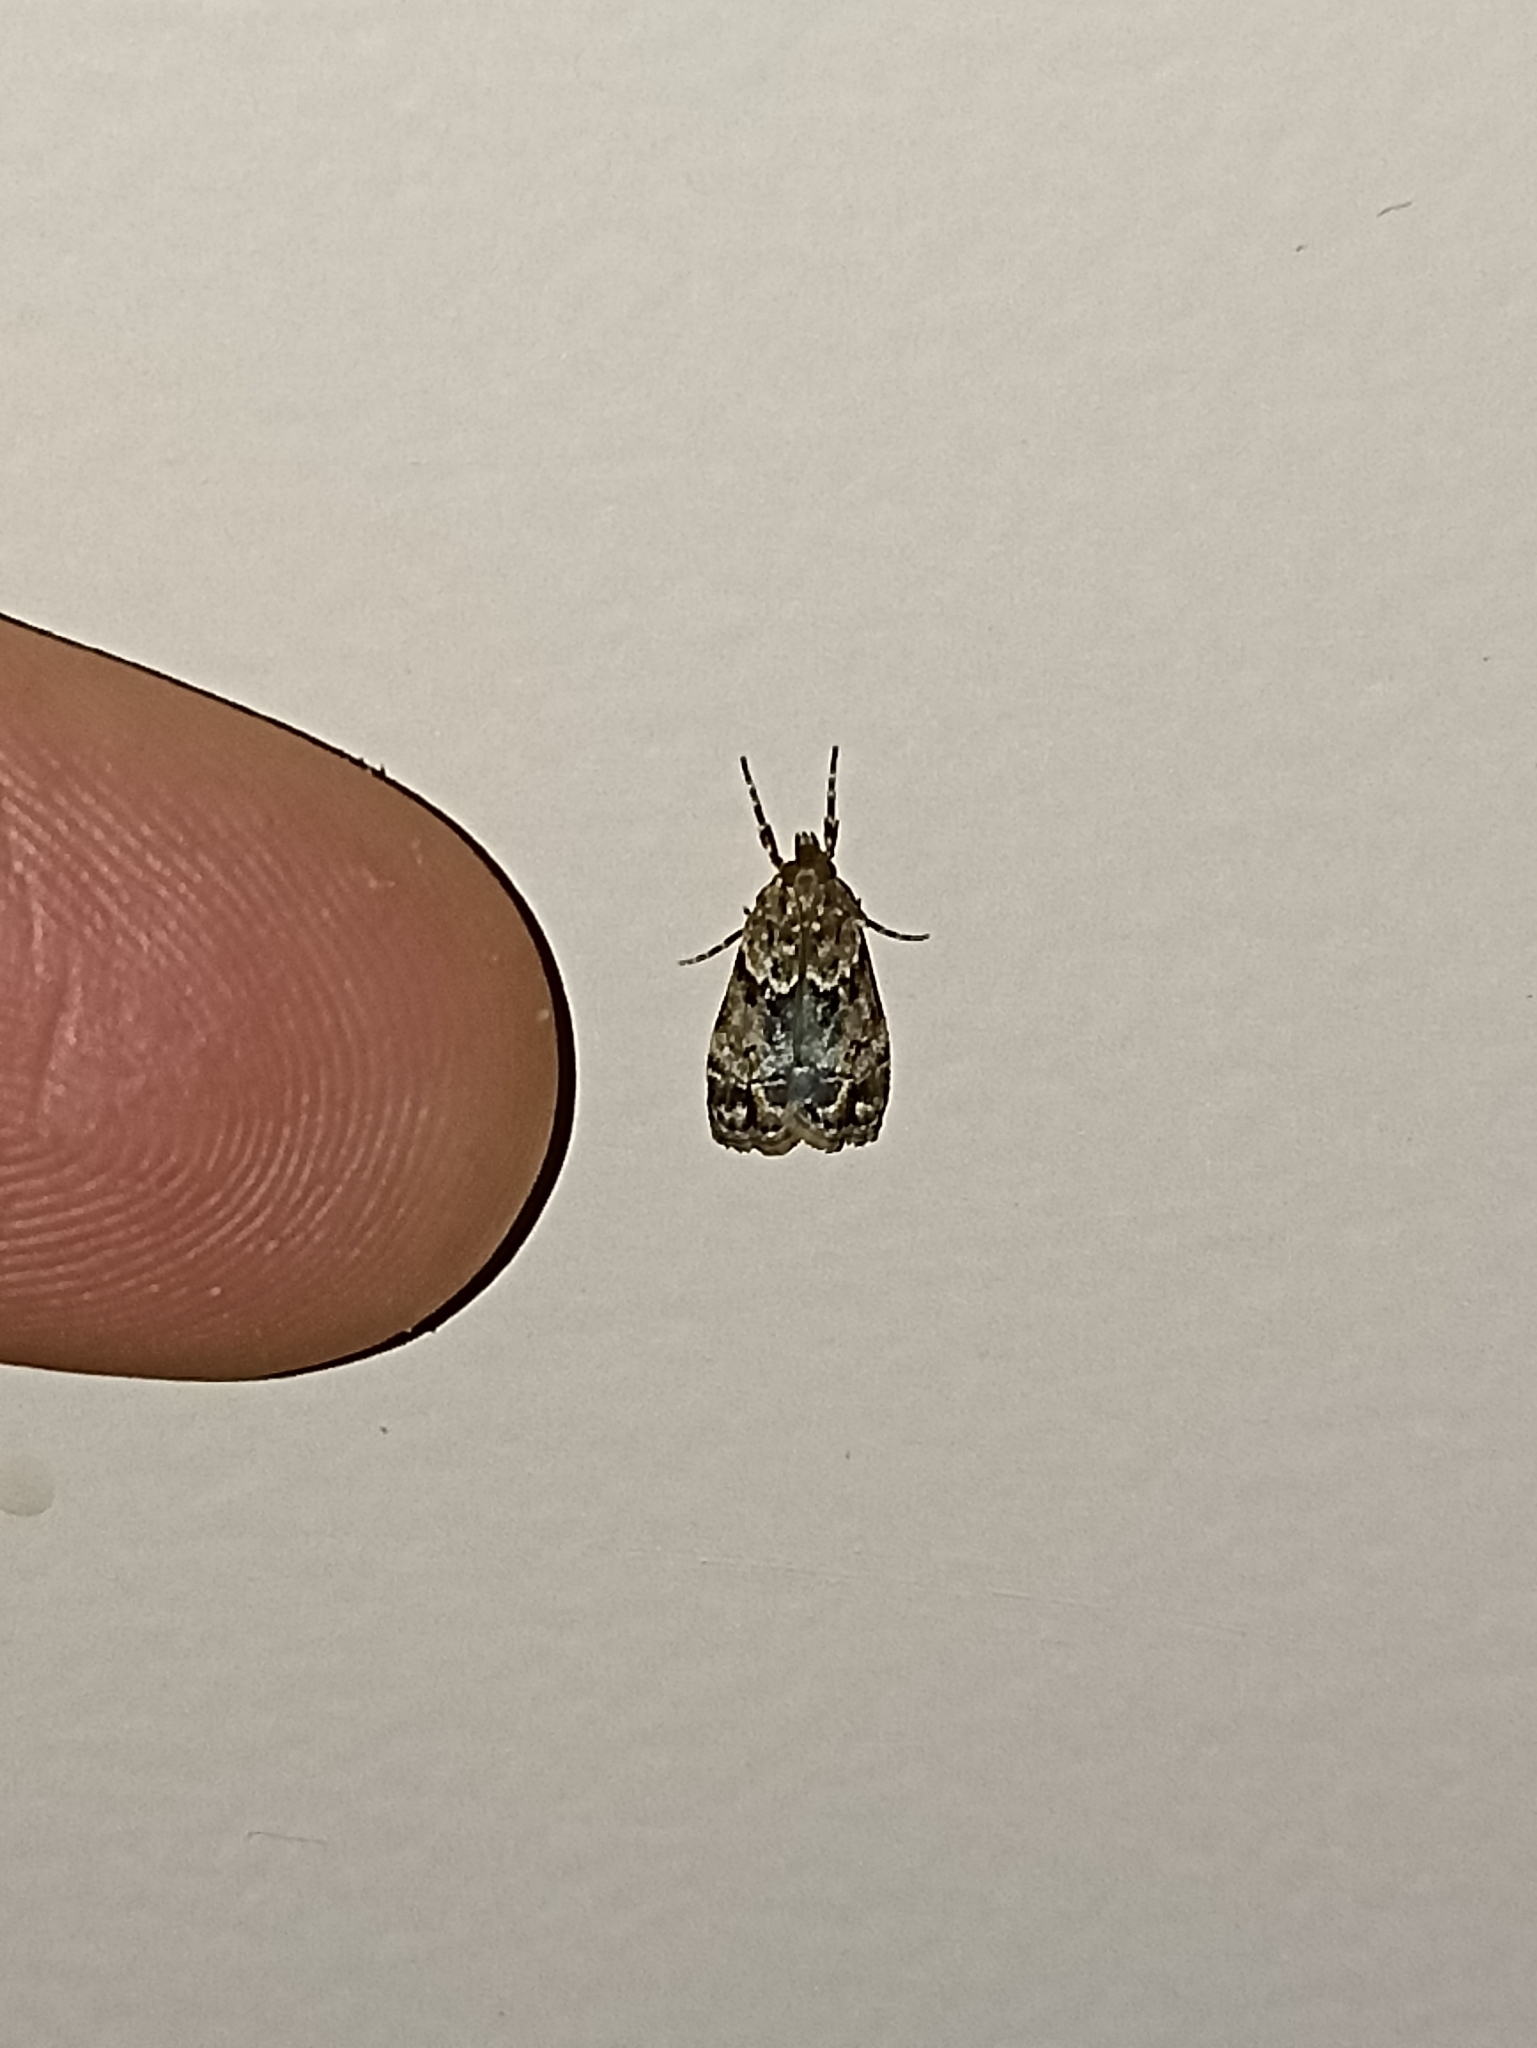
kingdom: Animalia
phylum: Arthropoda
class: Insecta
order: Lepidoptera
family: Crambidae
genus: Eudonia
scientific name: Eudonia minualis
